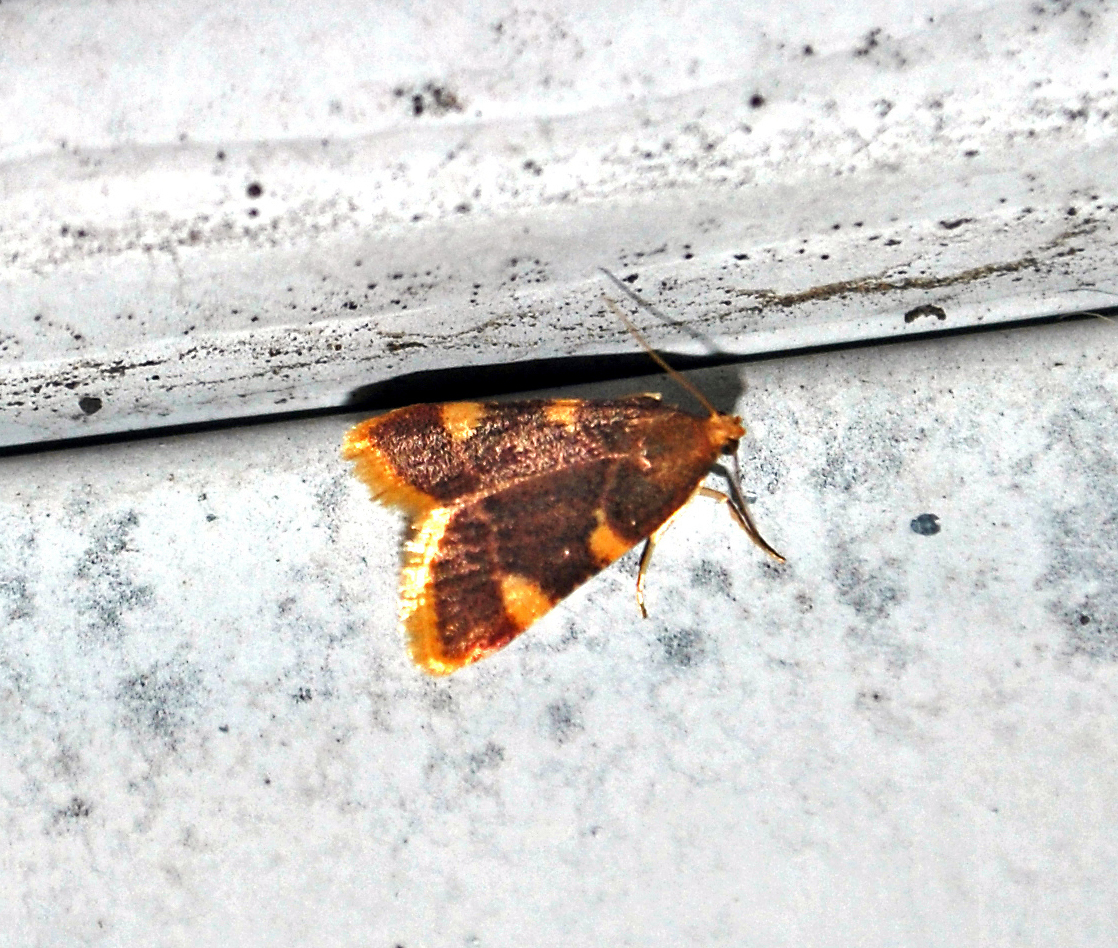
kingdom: Animalia
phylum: Arthropoda
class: Insecta
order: Lepidoptera
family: Pyralidae
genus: Hypsopygia
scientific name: Hypsopygia olinalis
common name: Yellow-fringed dolichomia moth
